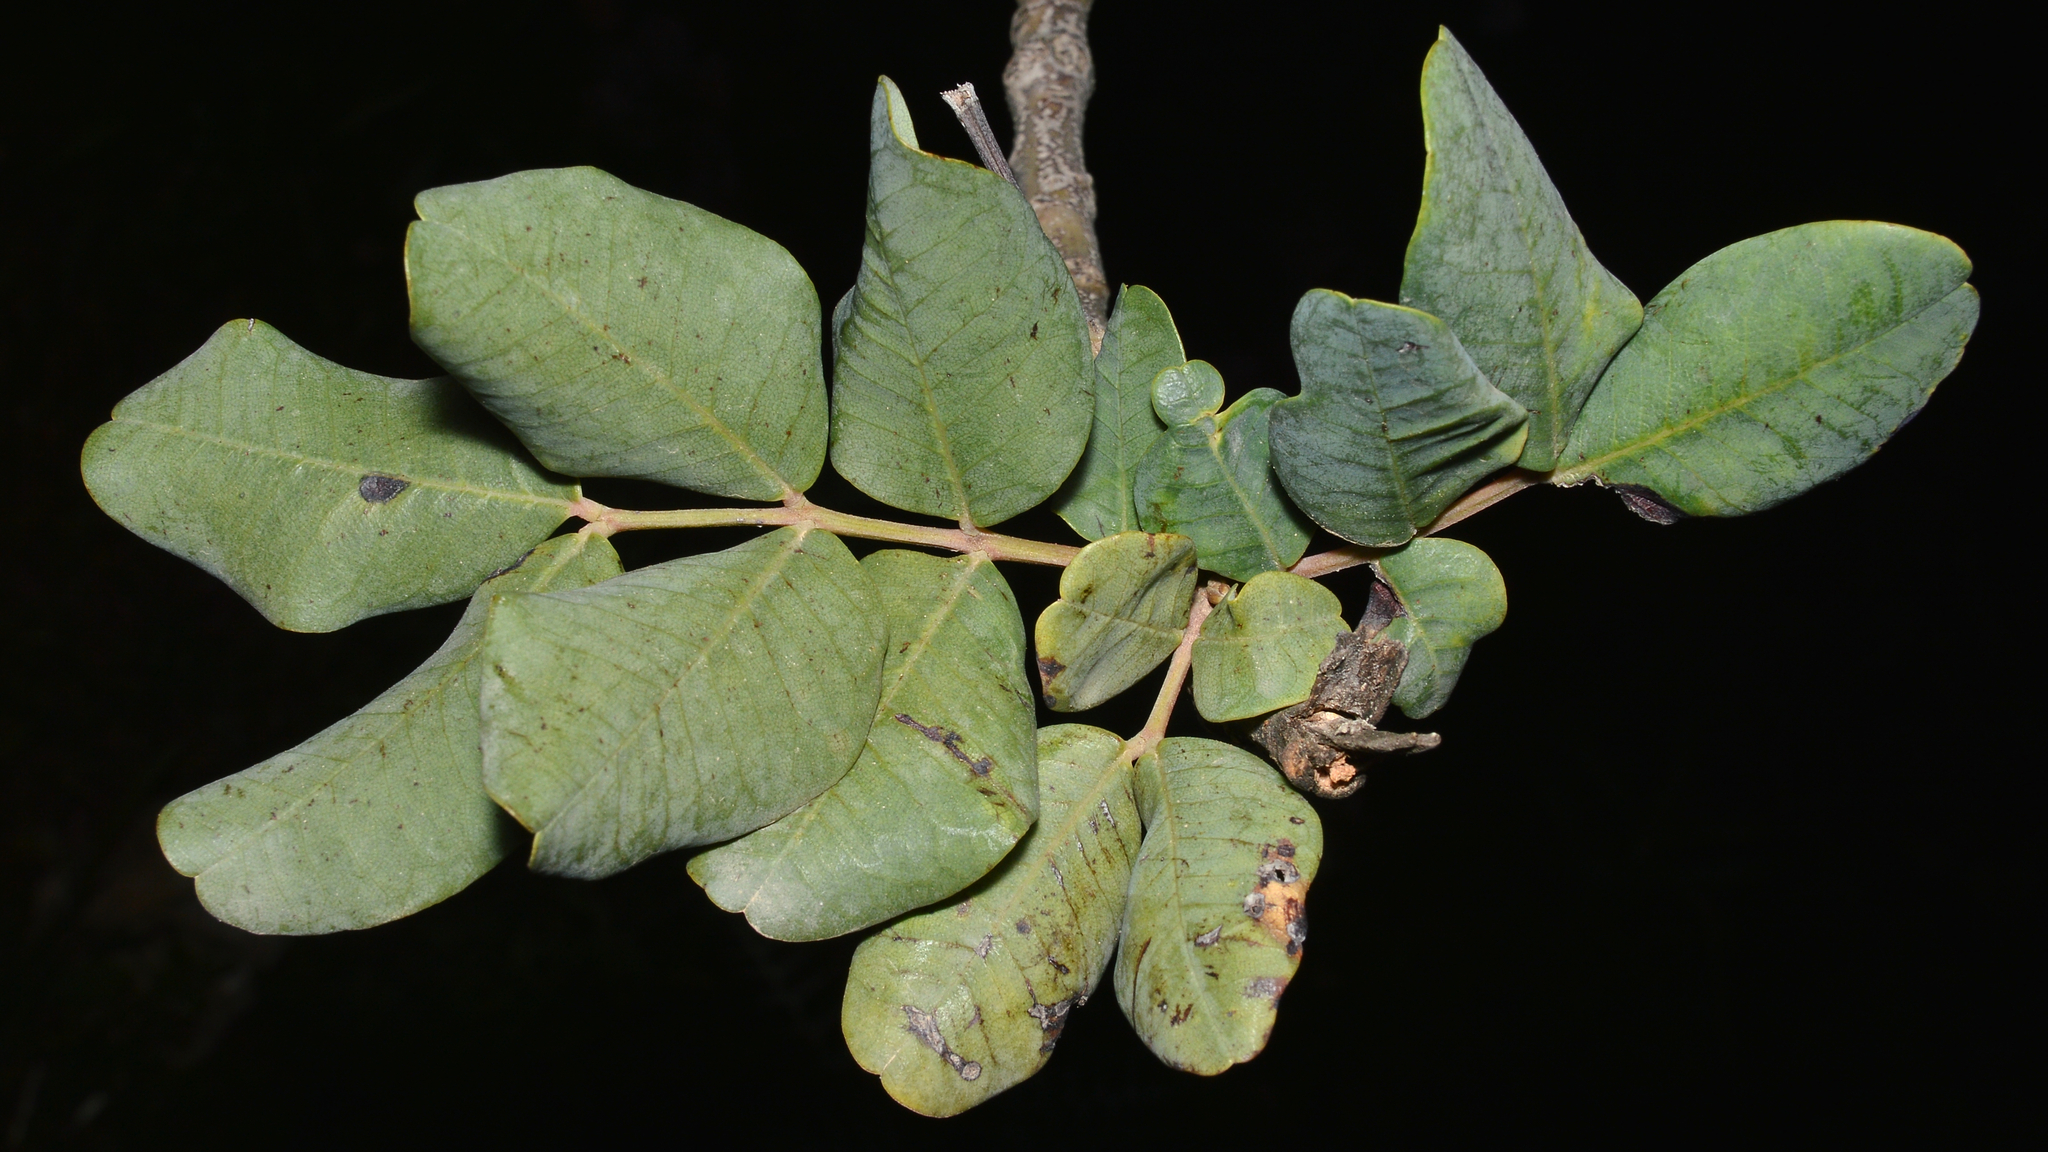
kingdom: Plantae
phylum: Tracheophyta
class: Magnoliopsida
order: Fabales
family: Fabaceae
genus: Ceratonia
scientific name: Ceratonia siliqua
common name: Carob
